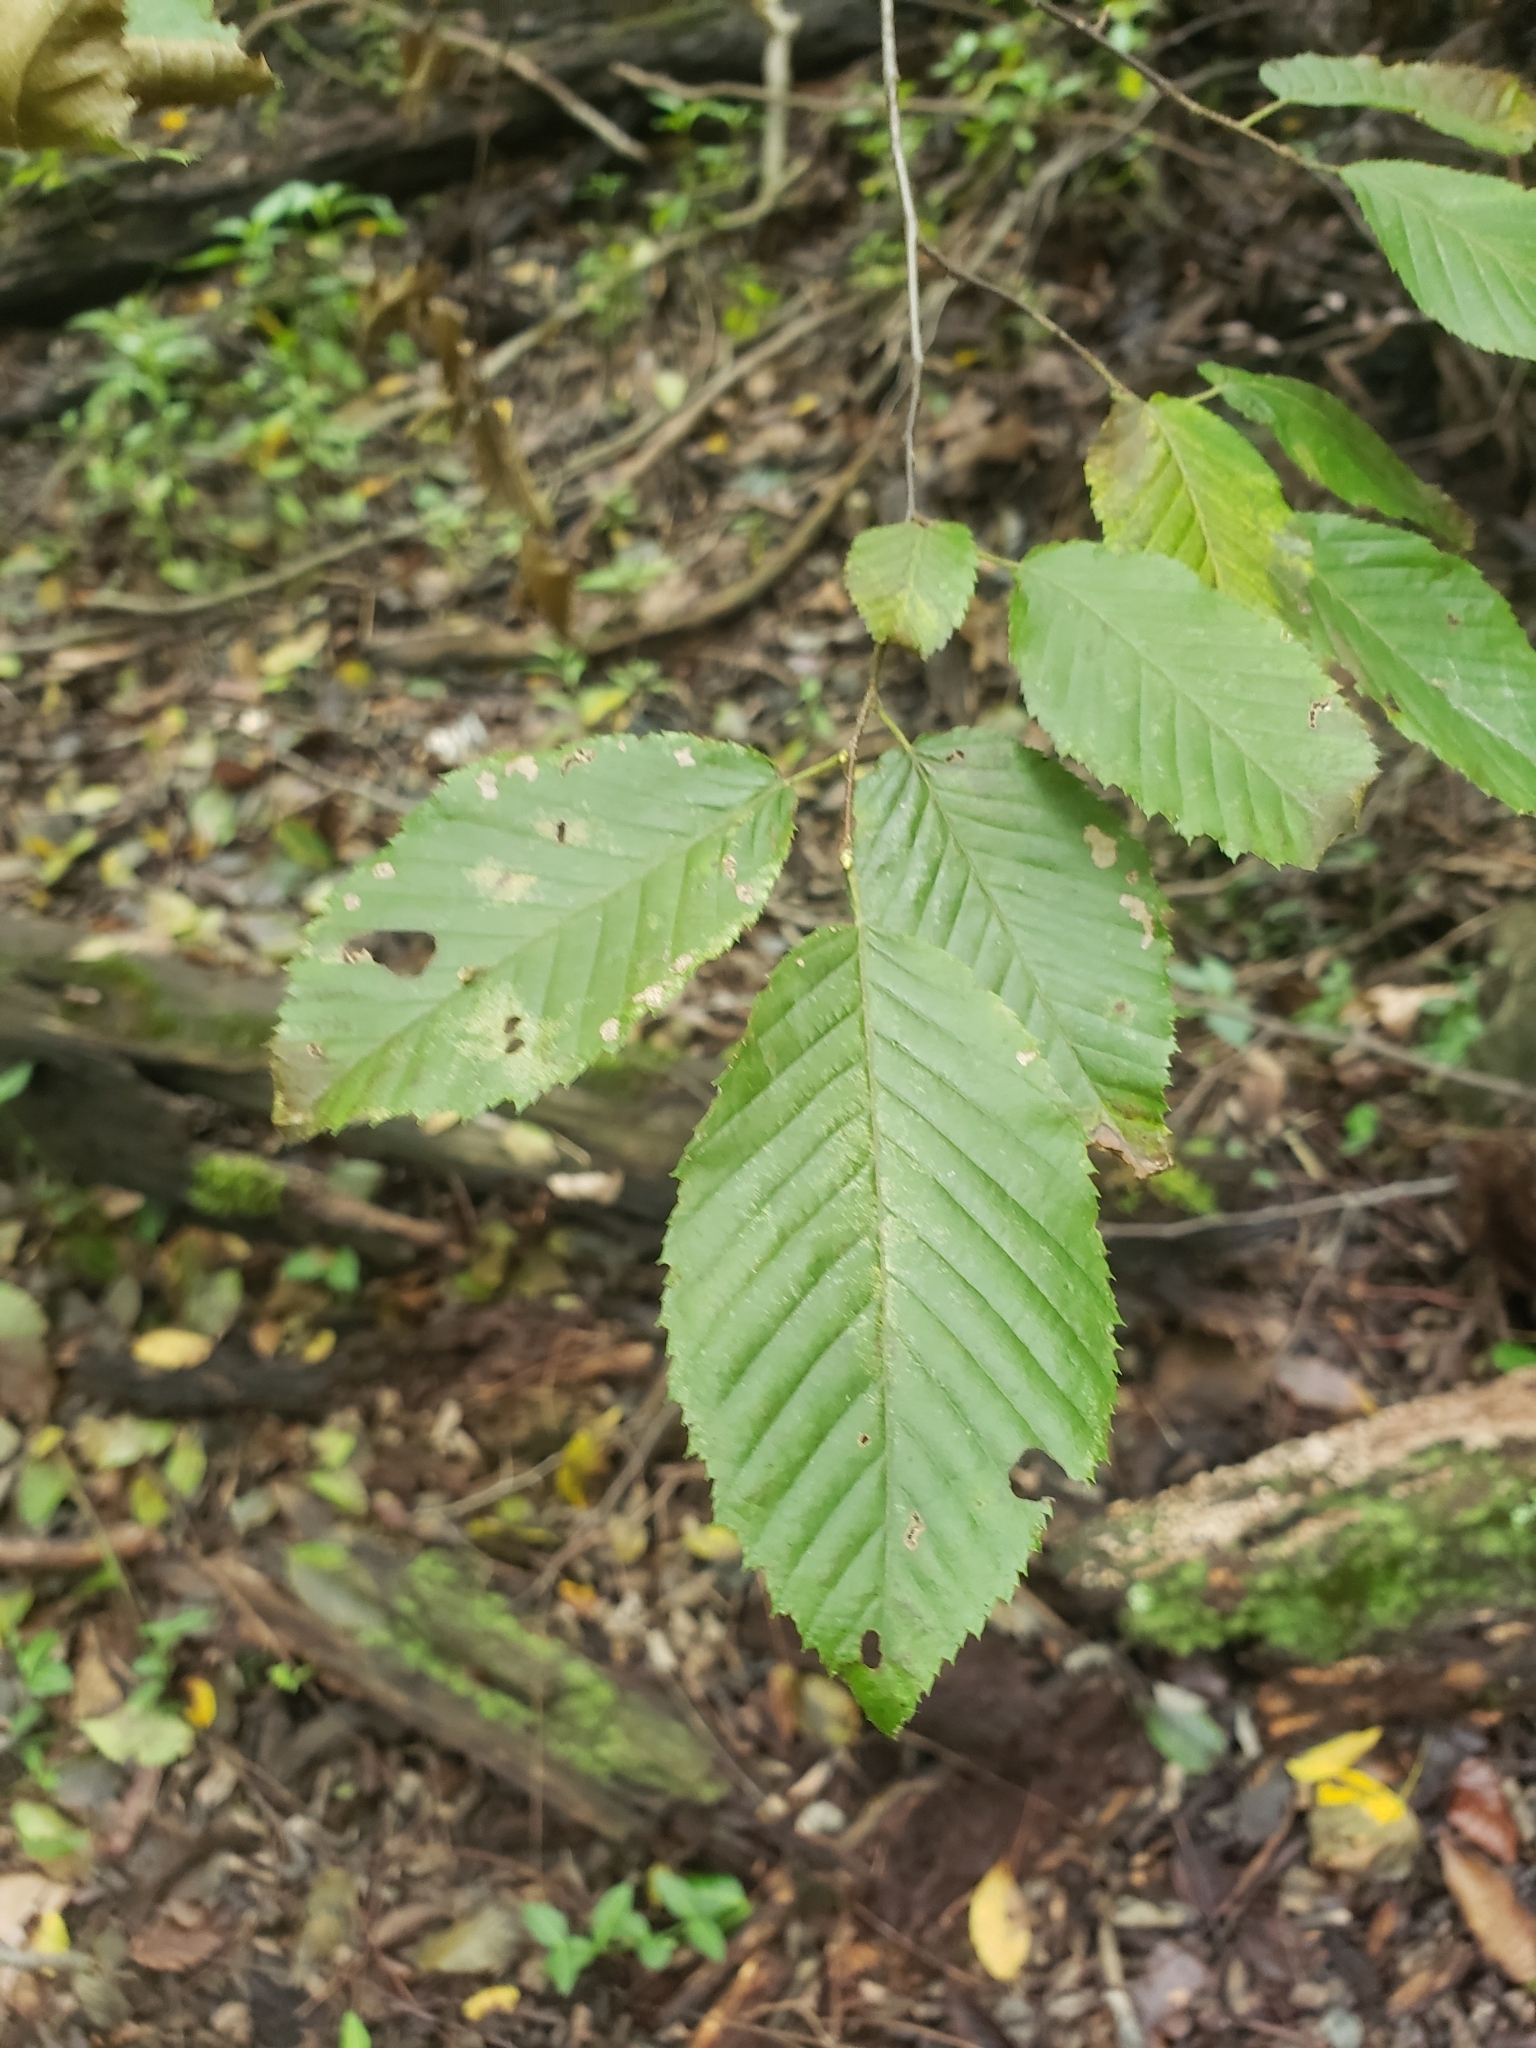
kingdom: Plantae
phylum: Tracheophyta
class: Magnoliopsida
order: Fagales
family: Betulaceae
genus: Carpinus
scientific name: Carpinus caroliniana
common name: American hornbeam
